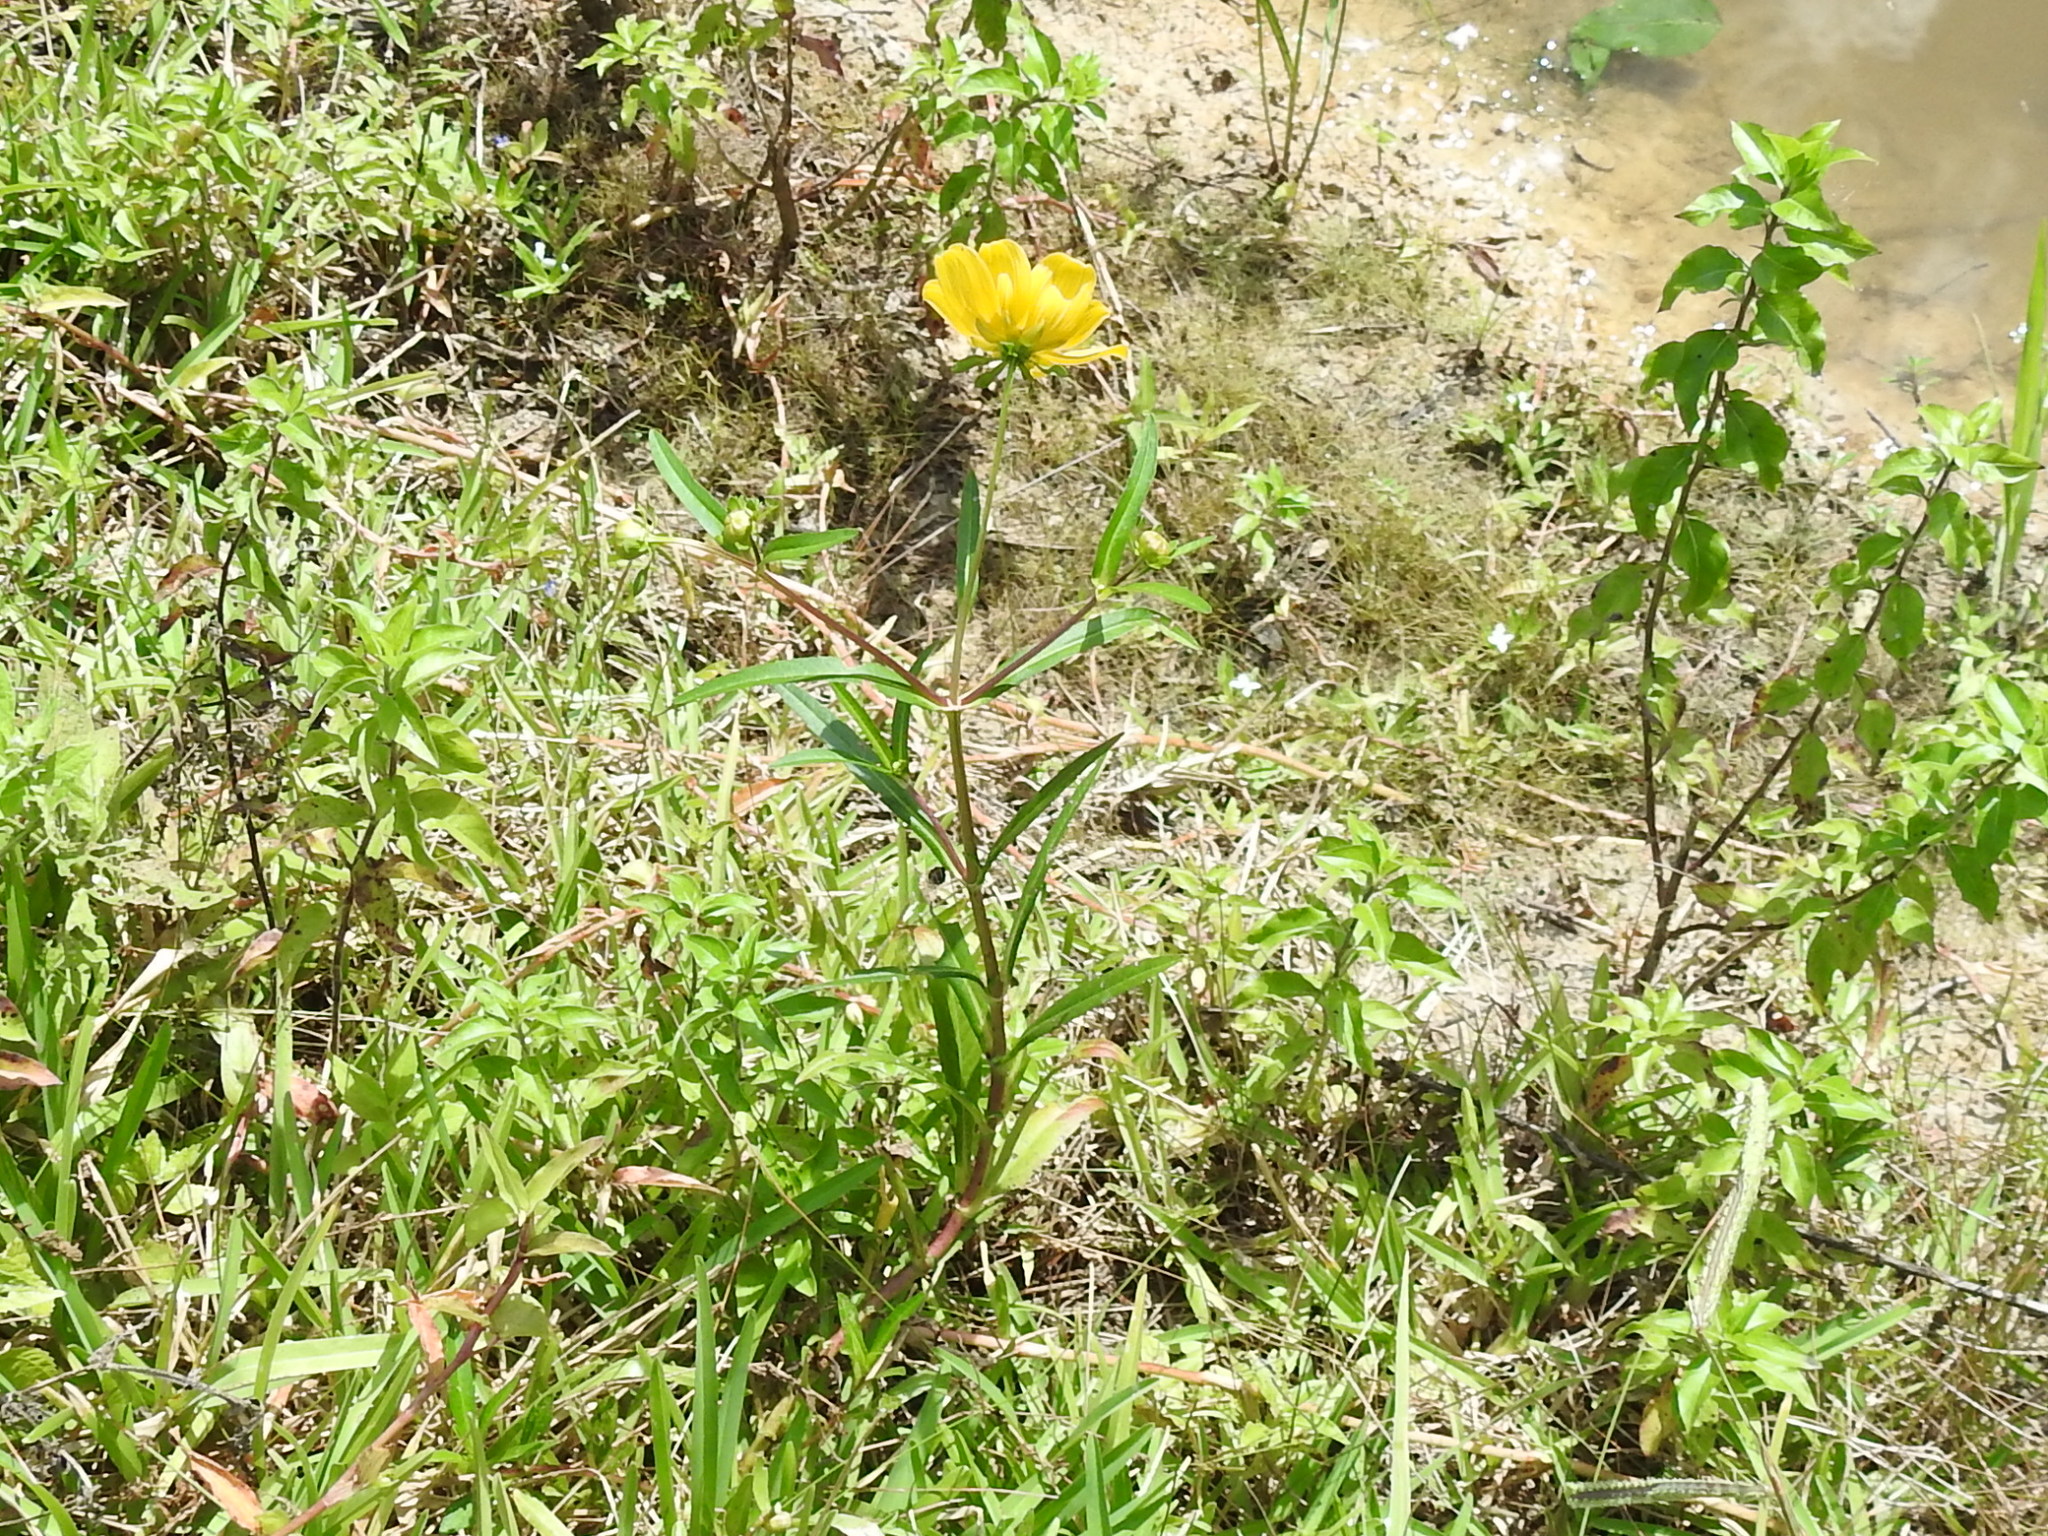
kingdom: Plantae
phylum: Tracheophyta
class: Magnoliopsida
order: Asterales
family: Asteraceae
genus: Bidens
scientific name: Bidens laevis
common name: Larger bur-marigold
